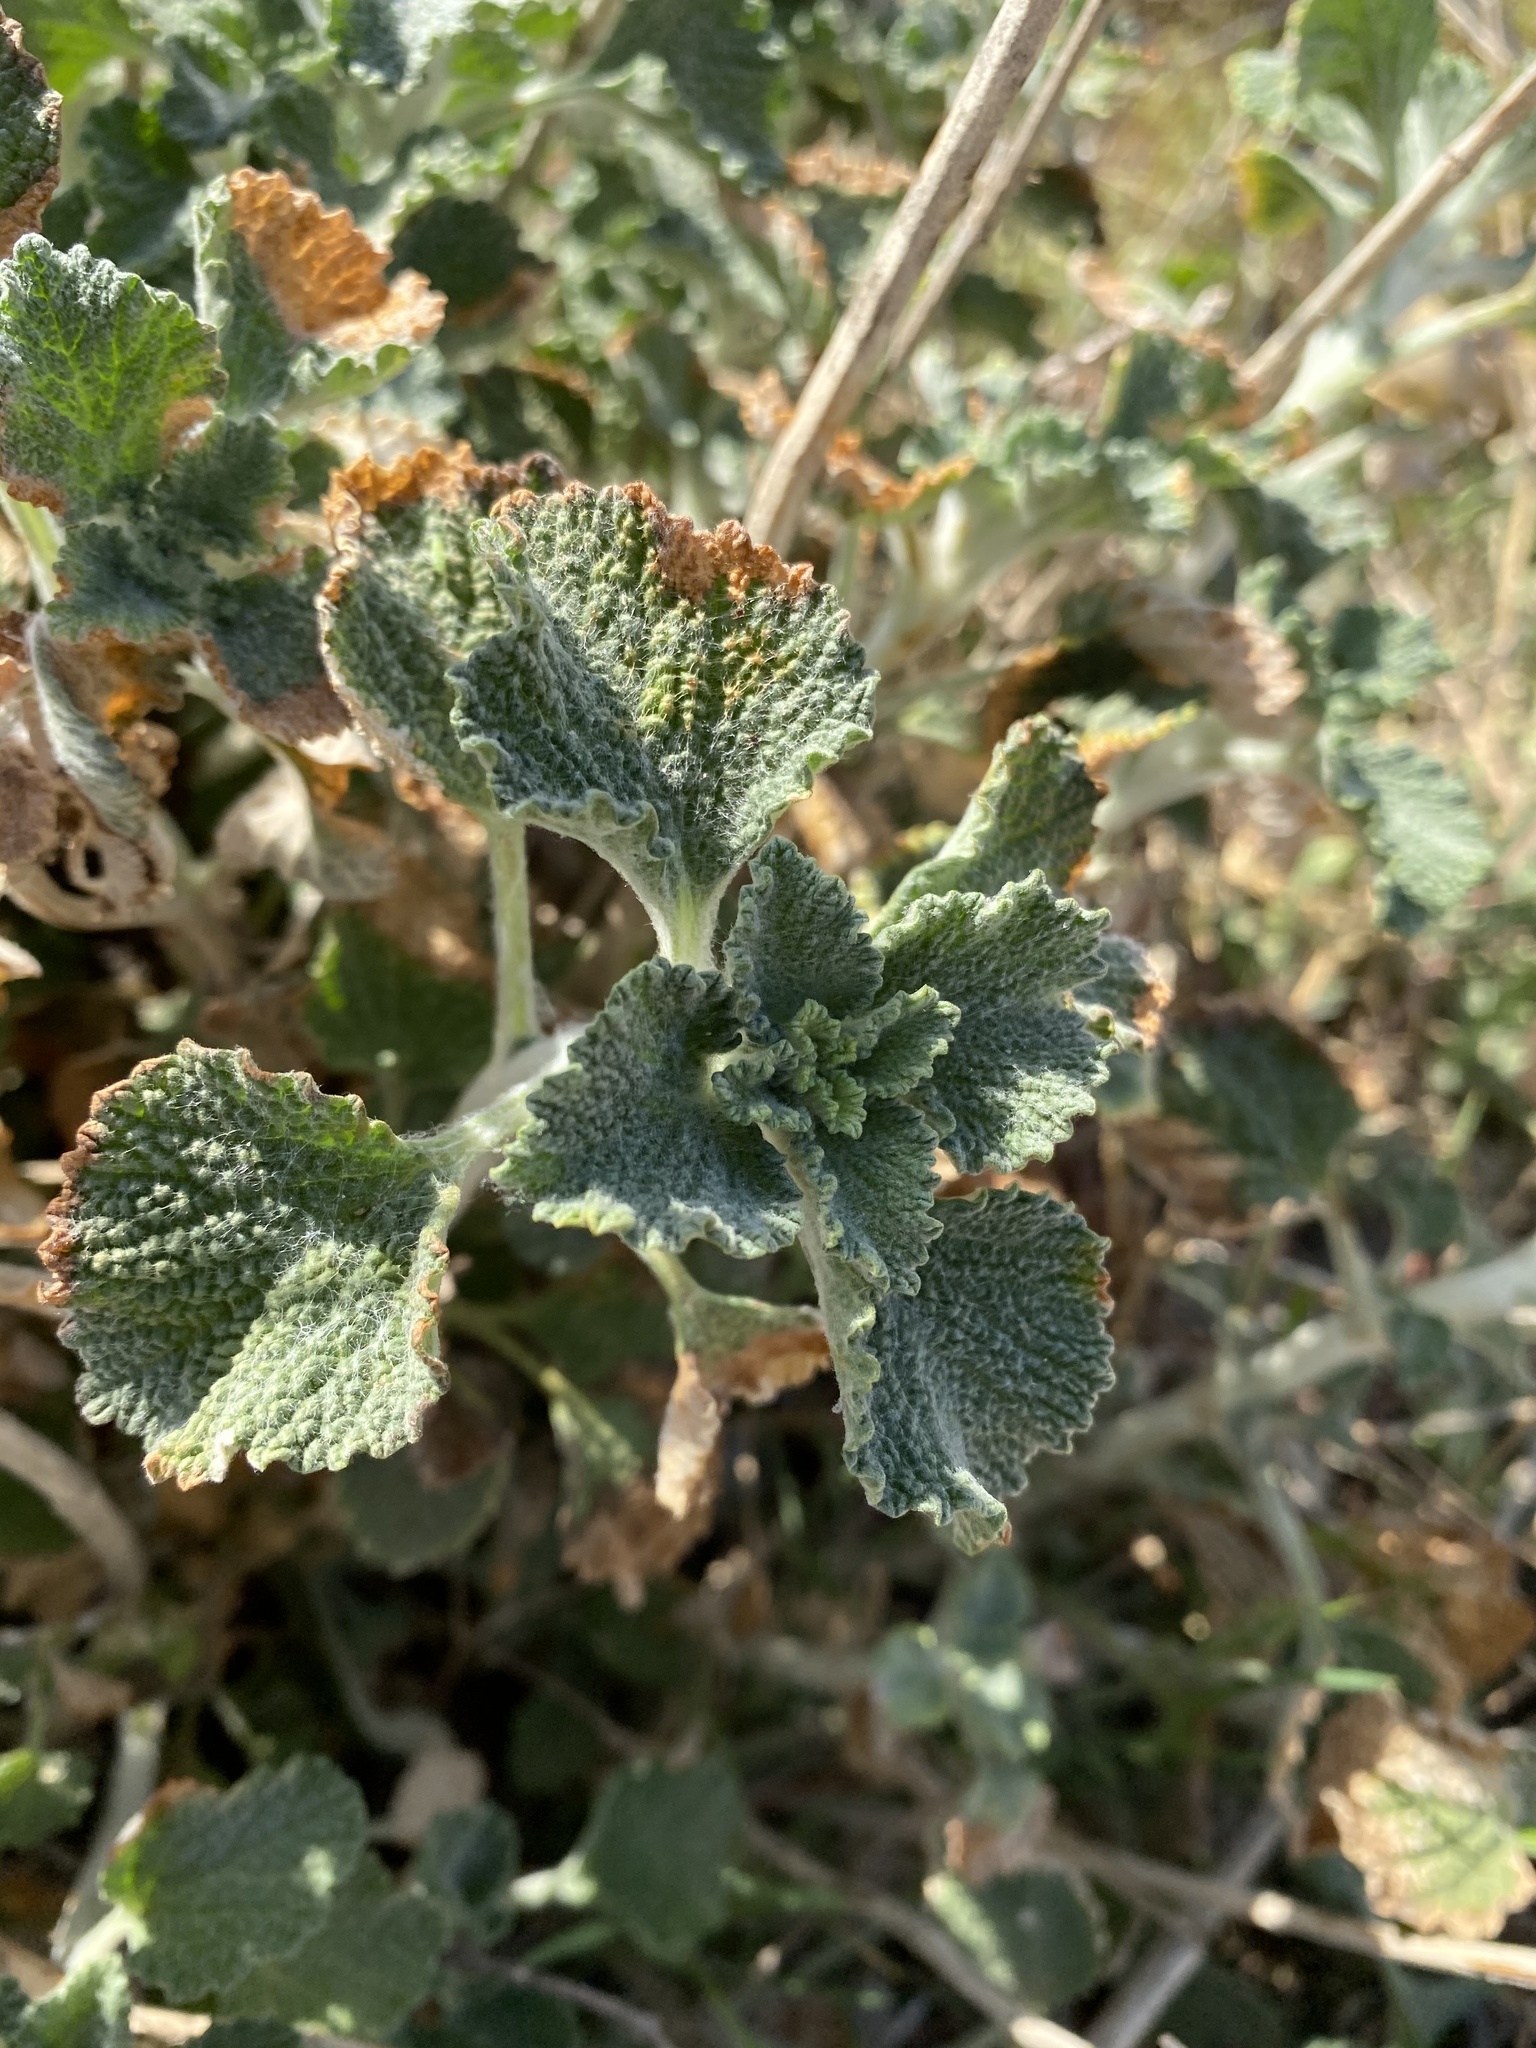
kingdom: Plantae
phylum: Tracheophyta
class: Magnoliopsida
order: Lamiales
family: Lamiaceae
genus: Marrubium
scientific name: Marrubium vulgare
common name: Horehound
